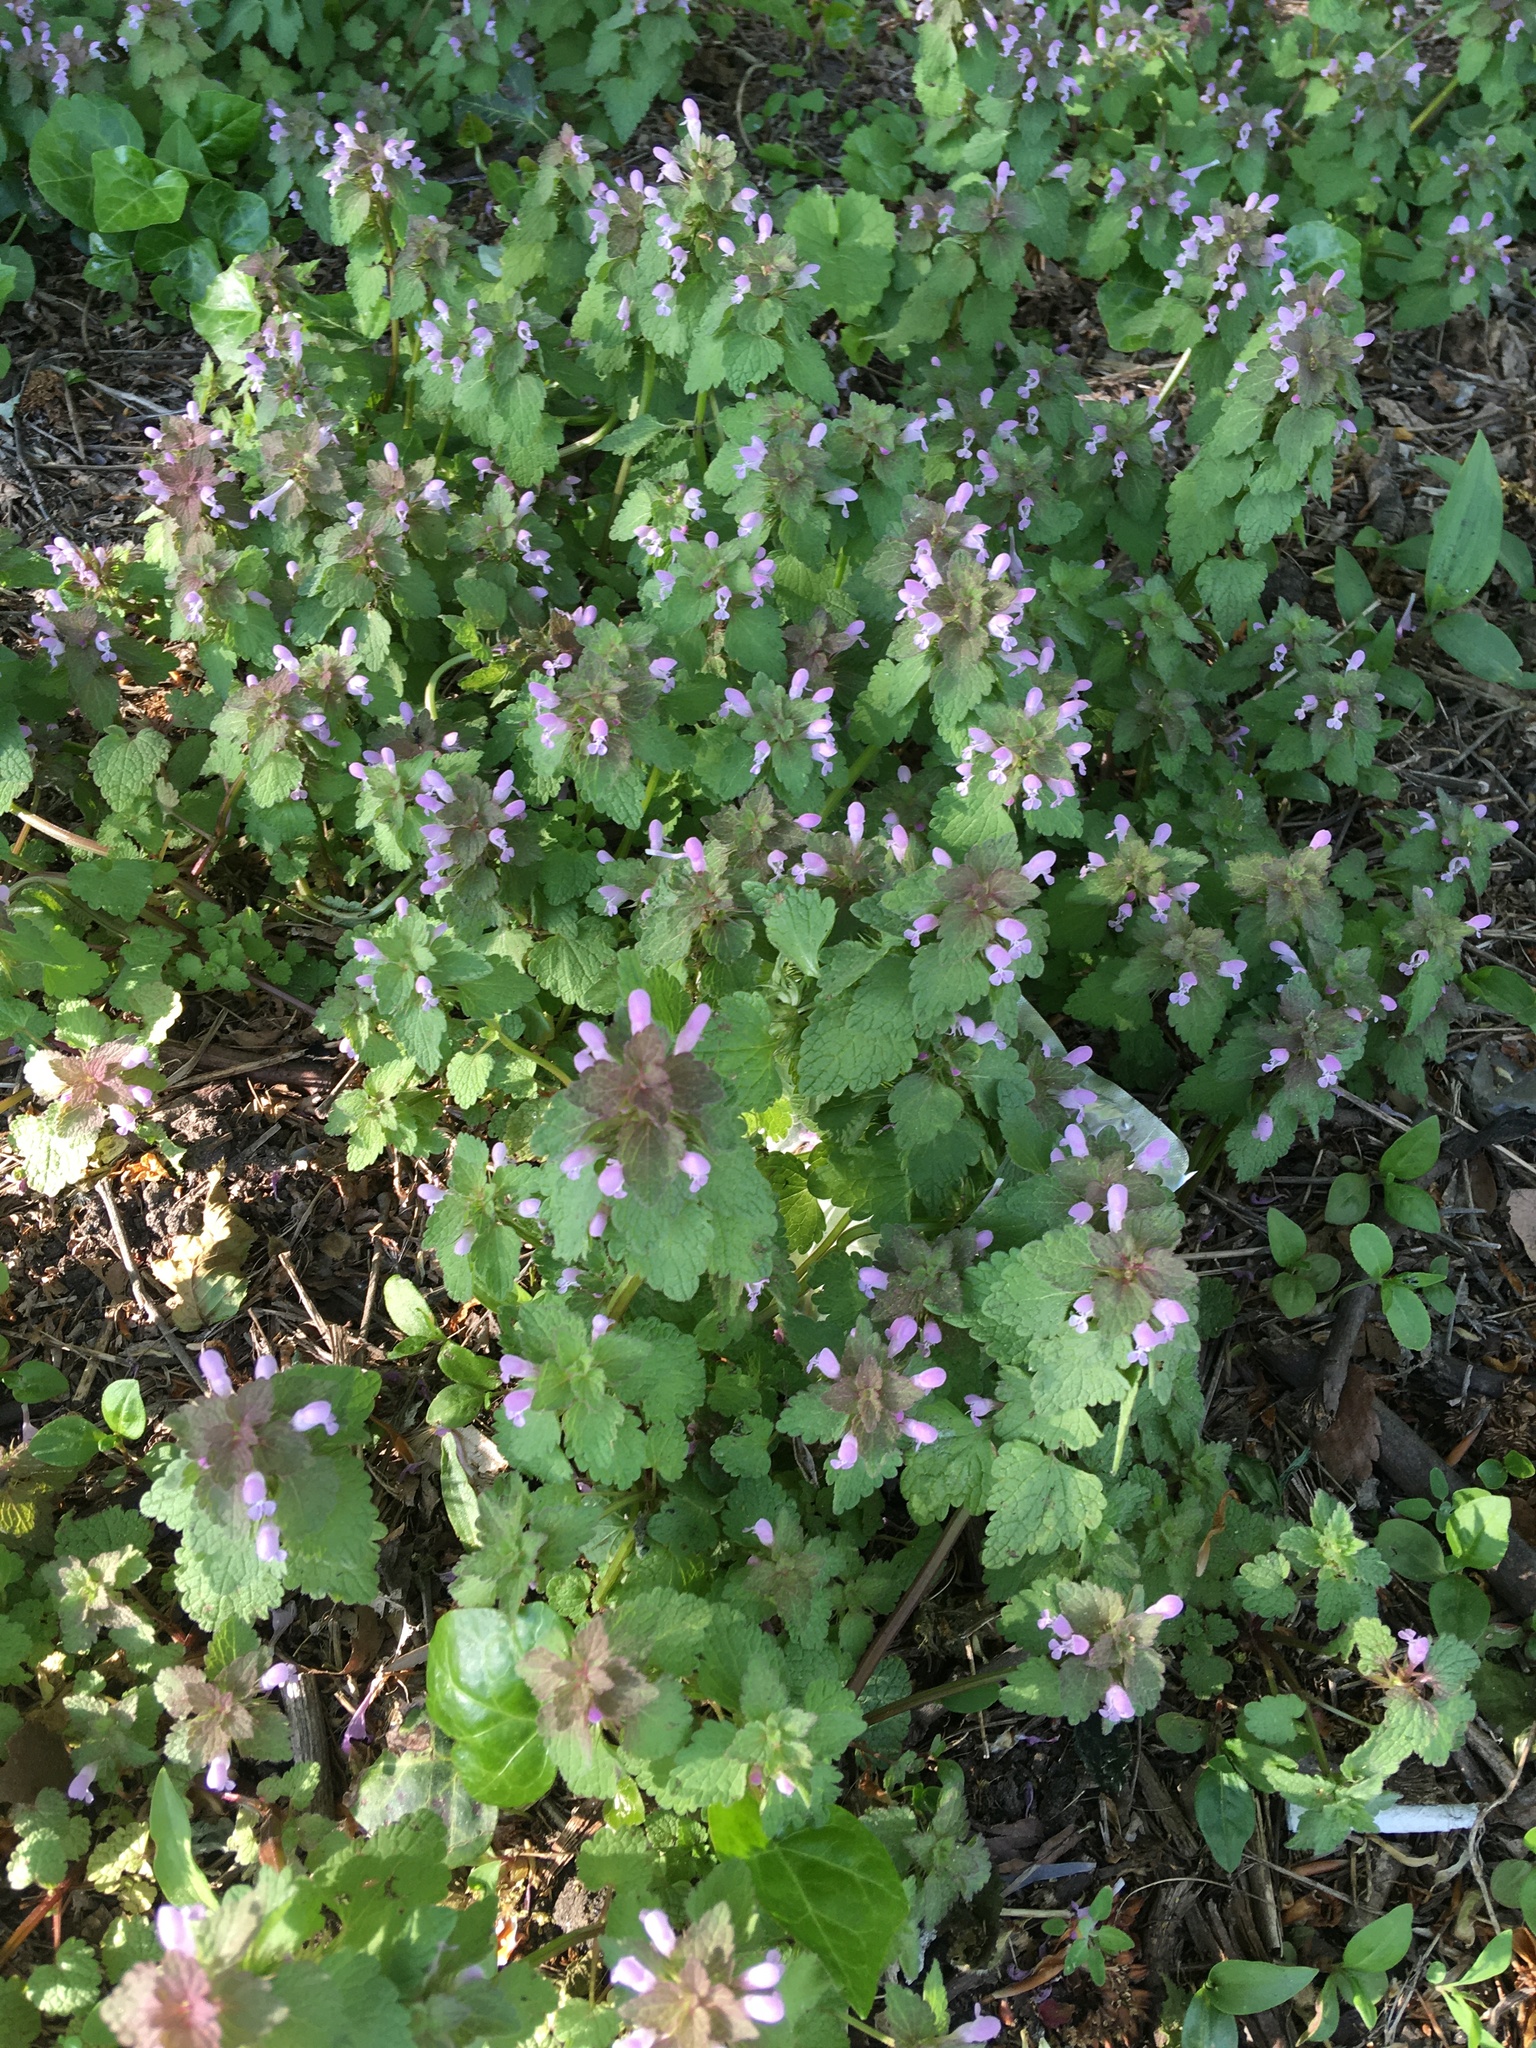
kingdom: Plantae
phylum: Tracheophyta
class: Magnoliopsida
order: Lamiales
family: Lamiaceae
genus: Lamium
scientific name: Lamium purpureum
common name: Red dead-nettle
